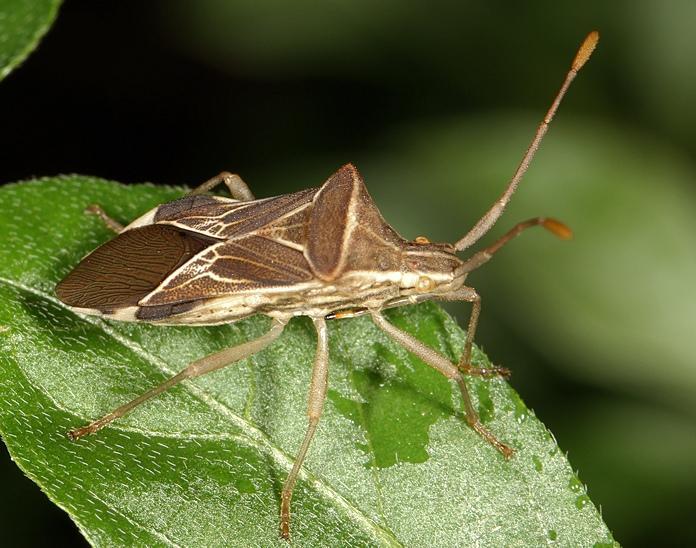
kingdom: Animalia
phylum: Arthropoda
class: Insecta
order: Hemiptera
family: Coreidae
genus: Cletoliturus
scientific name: Cletoliturus lituripennis
